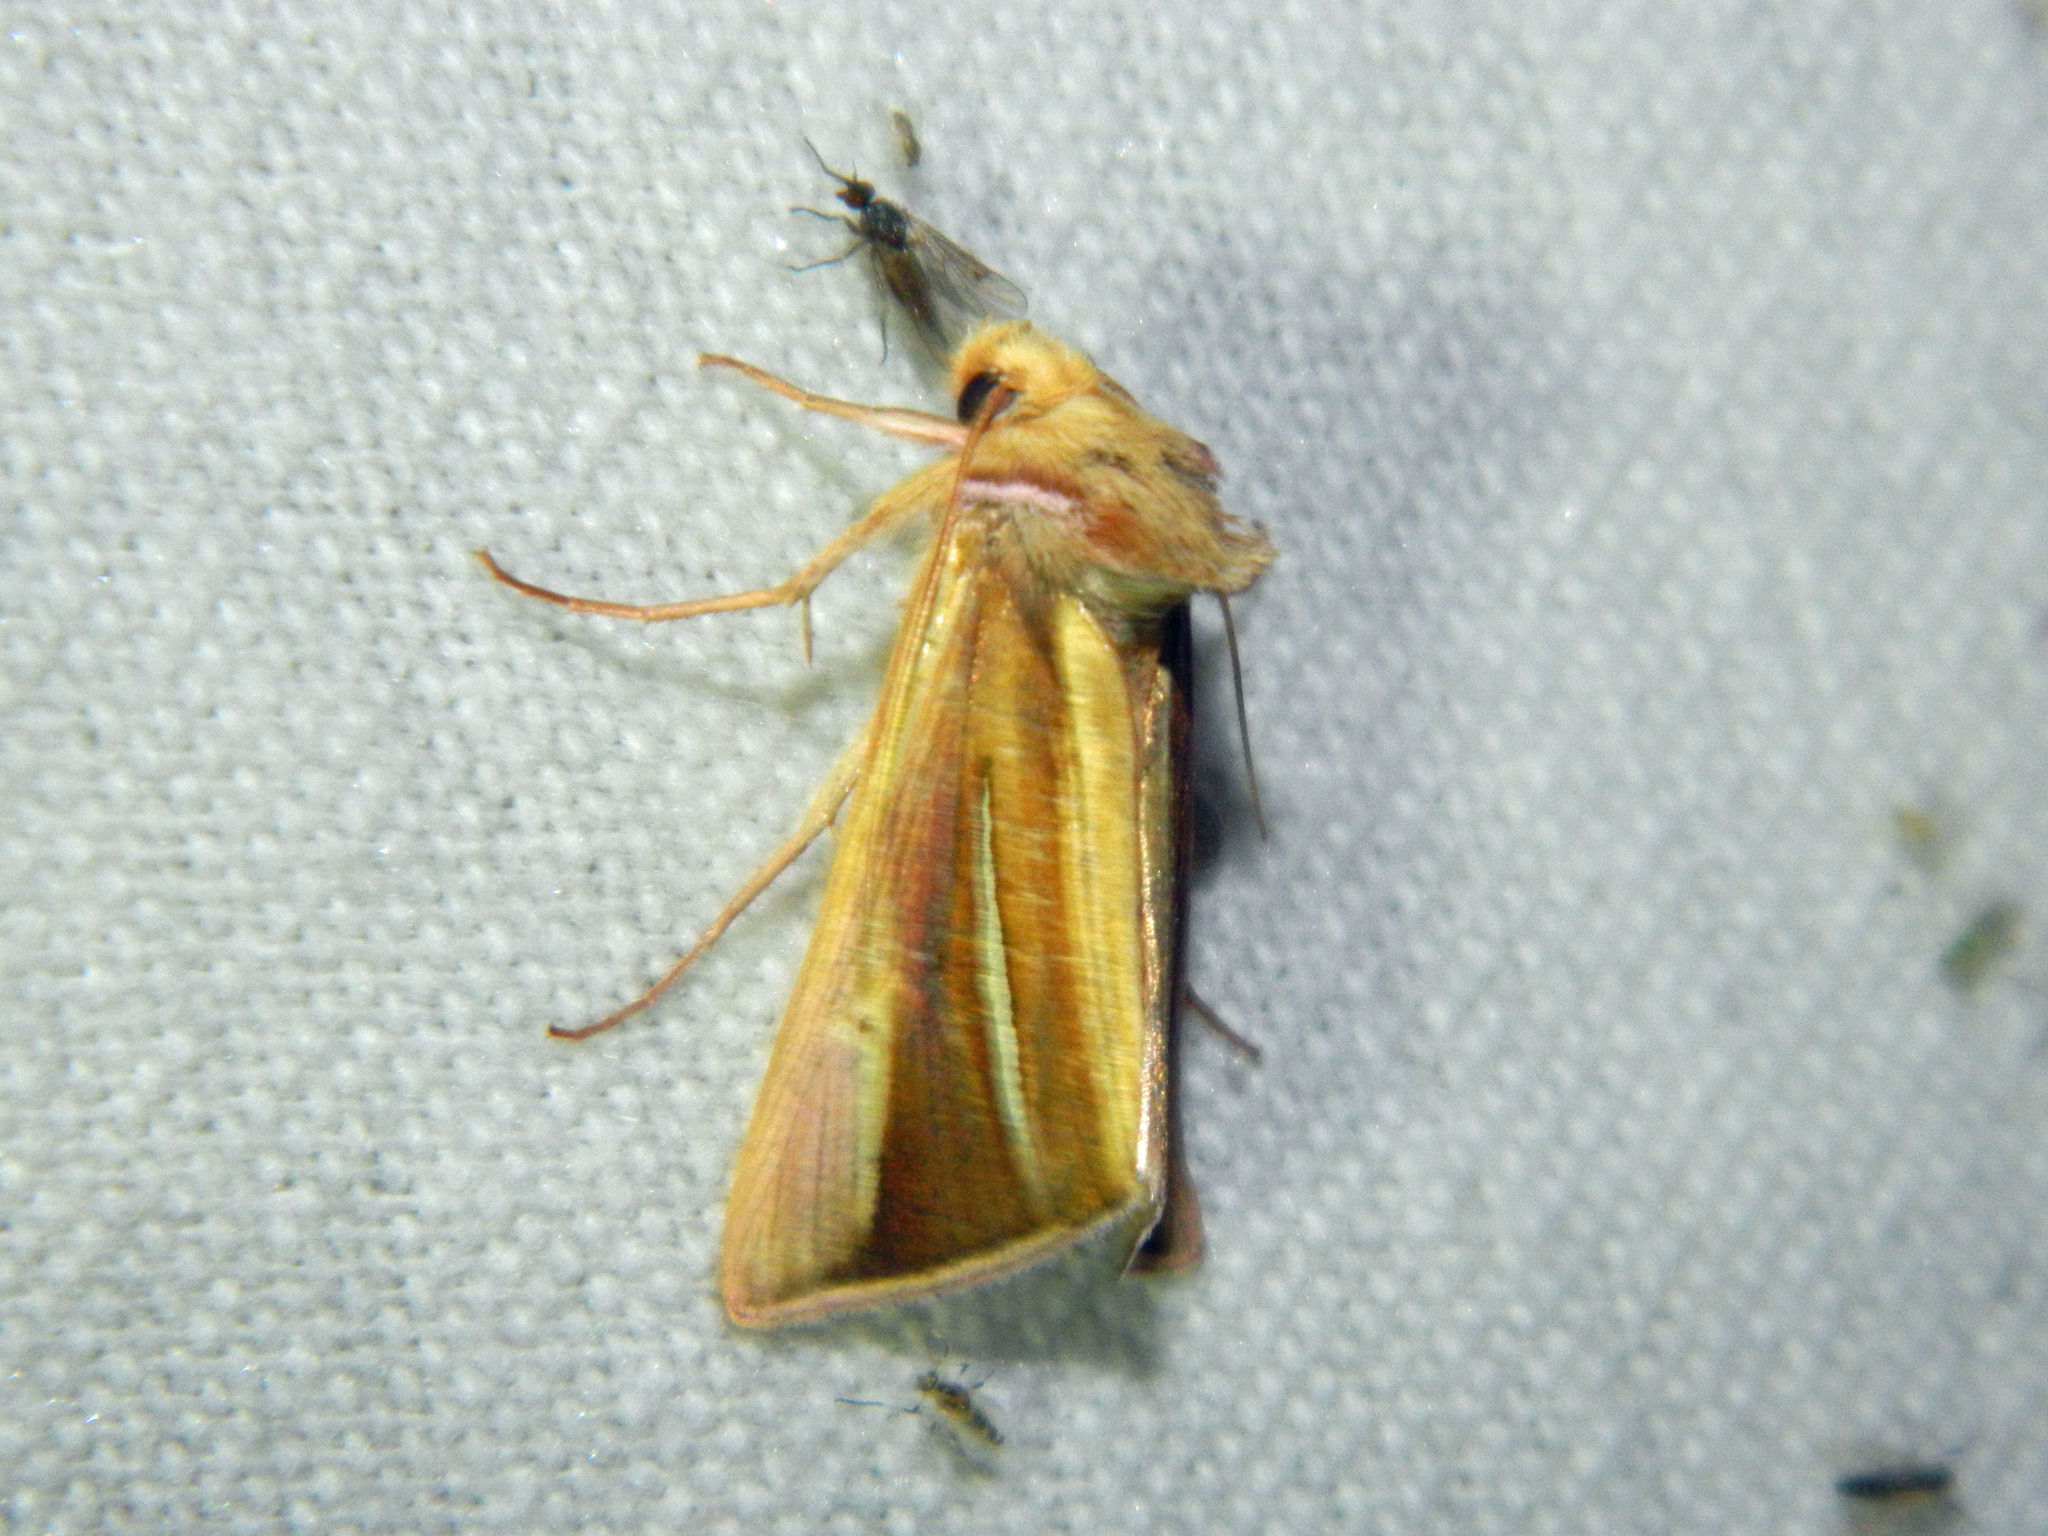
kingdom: Animalia
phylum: Arthropoda
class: Insecta
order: Lepidoptera
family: Noctuidae
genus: Plusia
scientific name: Plusia venusta
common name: White-streaked looper moth
